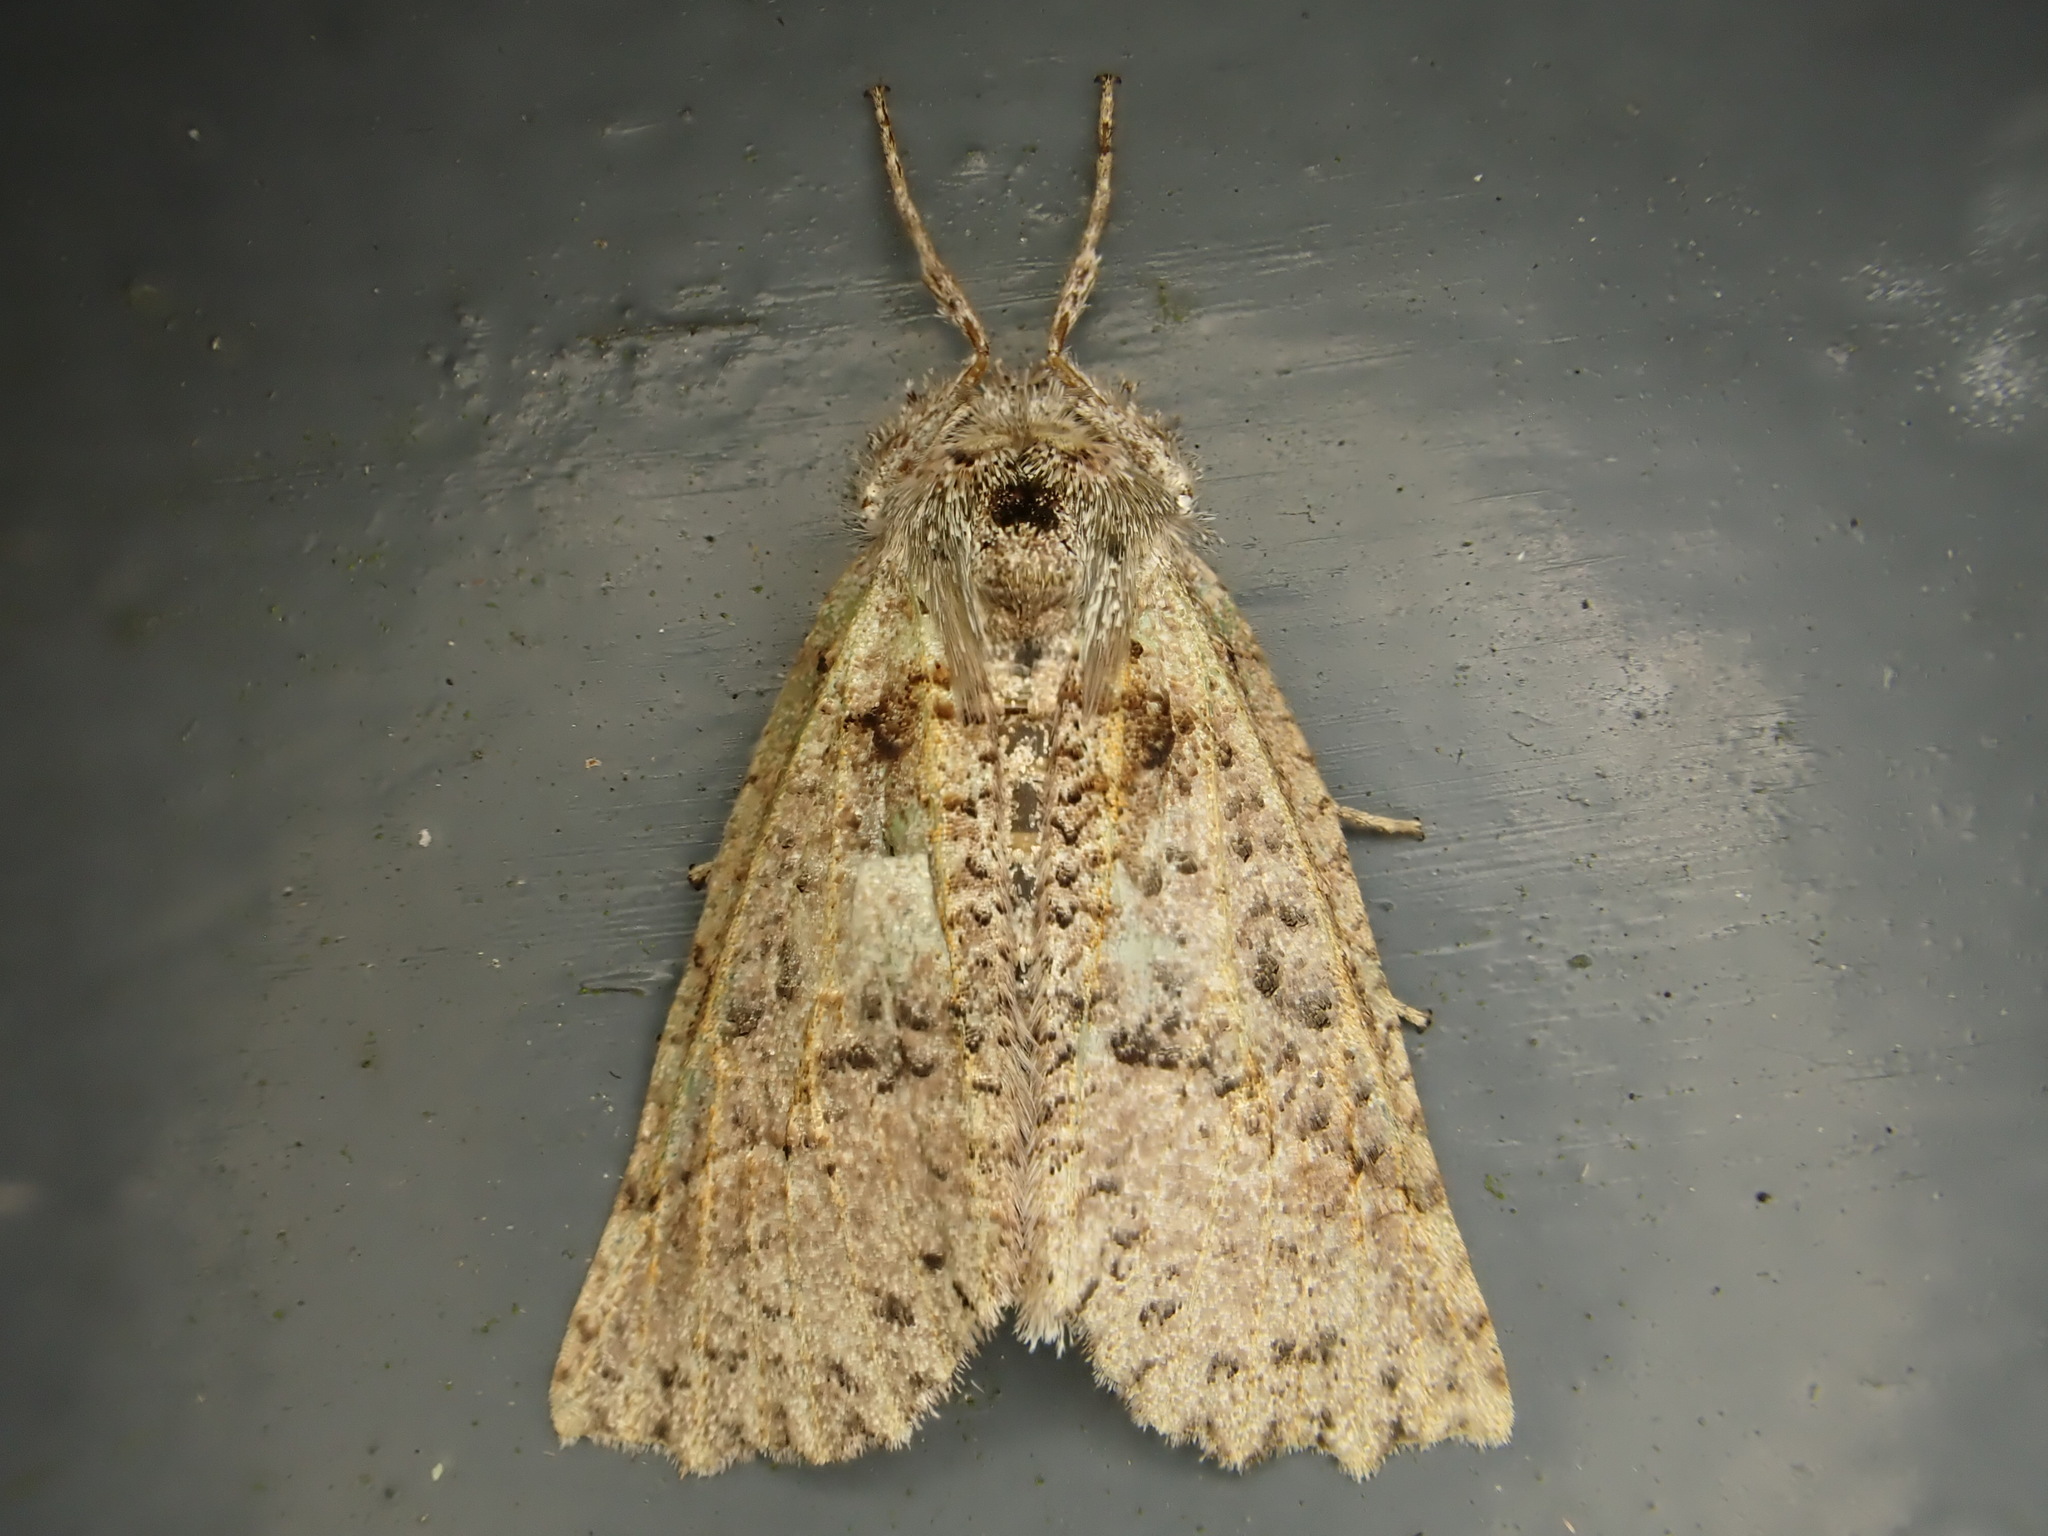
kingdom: Animalia
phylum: Arthropoda
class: Insecta
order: Lepidoptera
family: Geometridae
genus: Declana
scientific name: Declana floccosa
